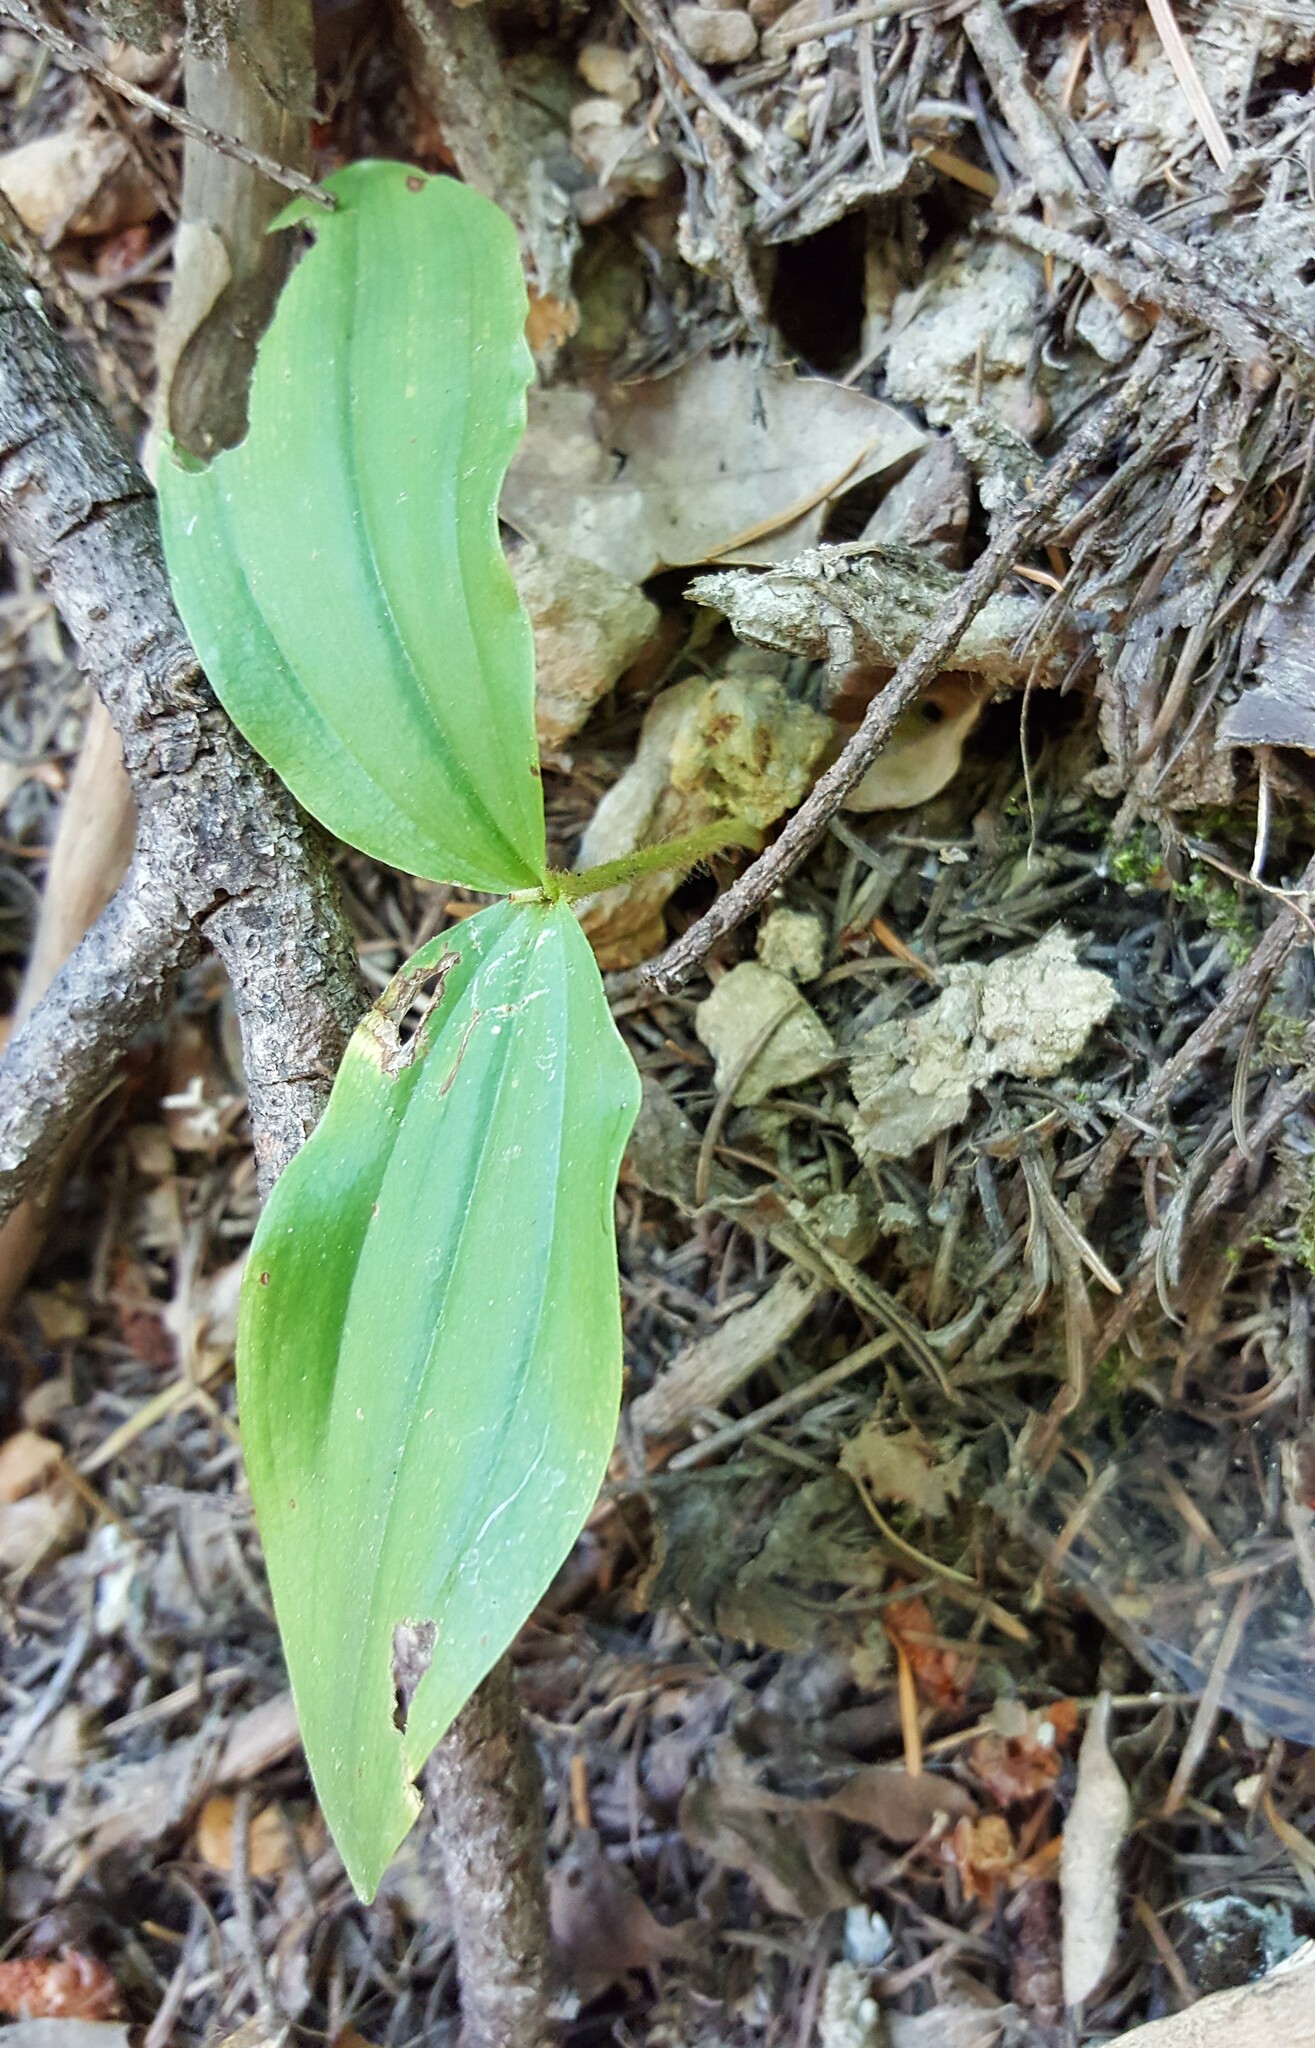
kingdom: Plantae
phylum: Tracheophyta
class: Liliopsida
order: Asparagales
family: Orchidaceae
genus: Cypripedium
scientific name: Cypripedium fasciculatum
